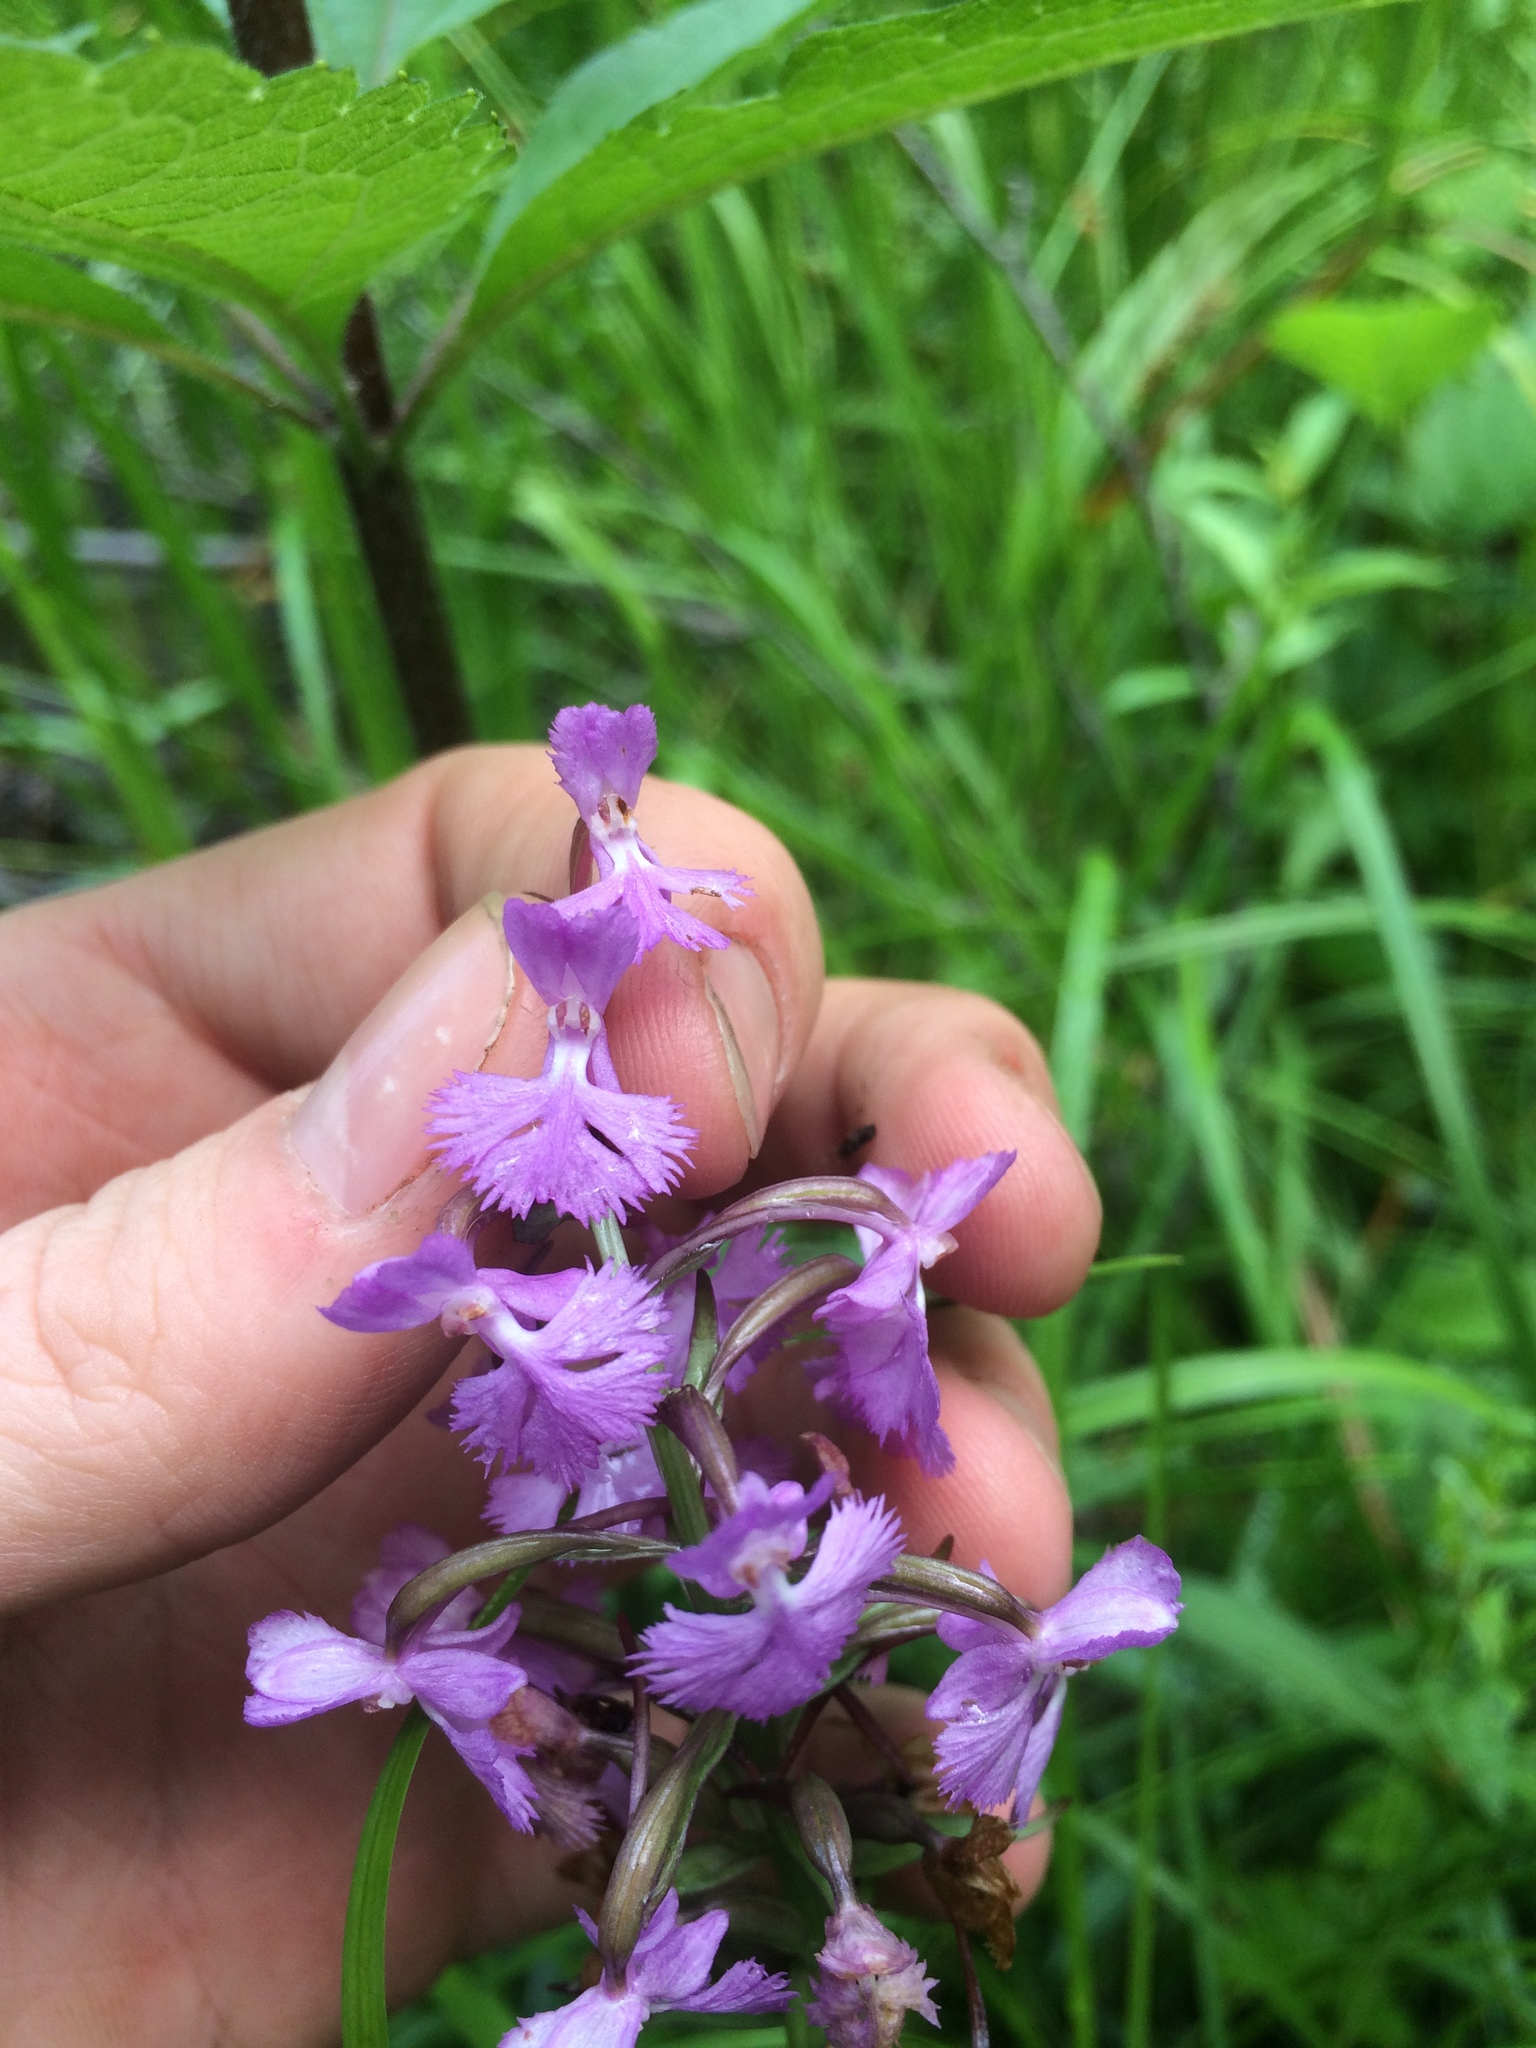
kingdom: Plantae
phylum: Tracheophyta
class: Liliopsida
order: Asparagales
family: Orchidaceae
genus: Platanthera
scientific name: Platanthera psycodes
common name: Lesser purple fringed orchid
